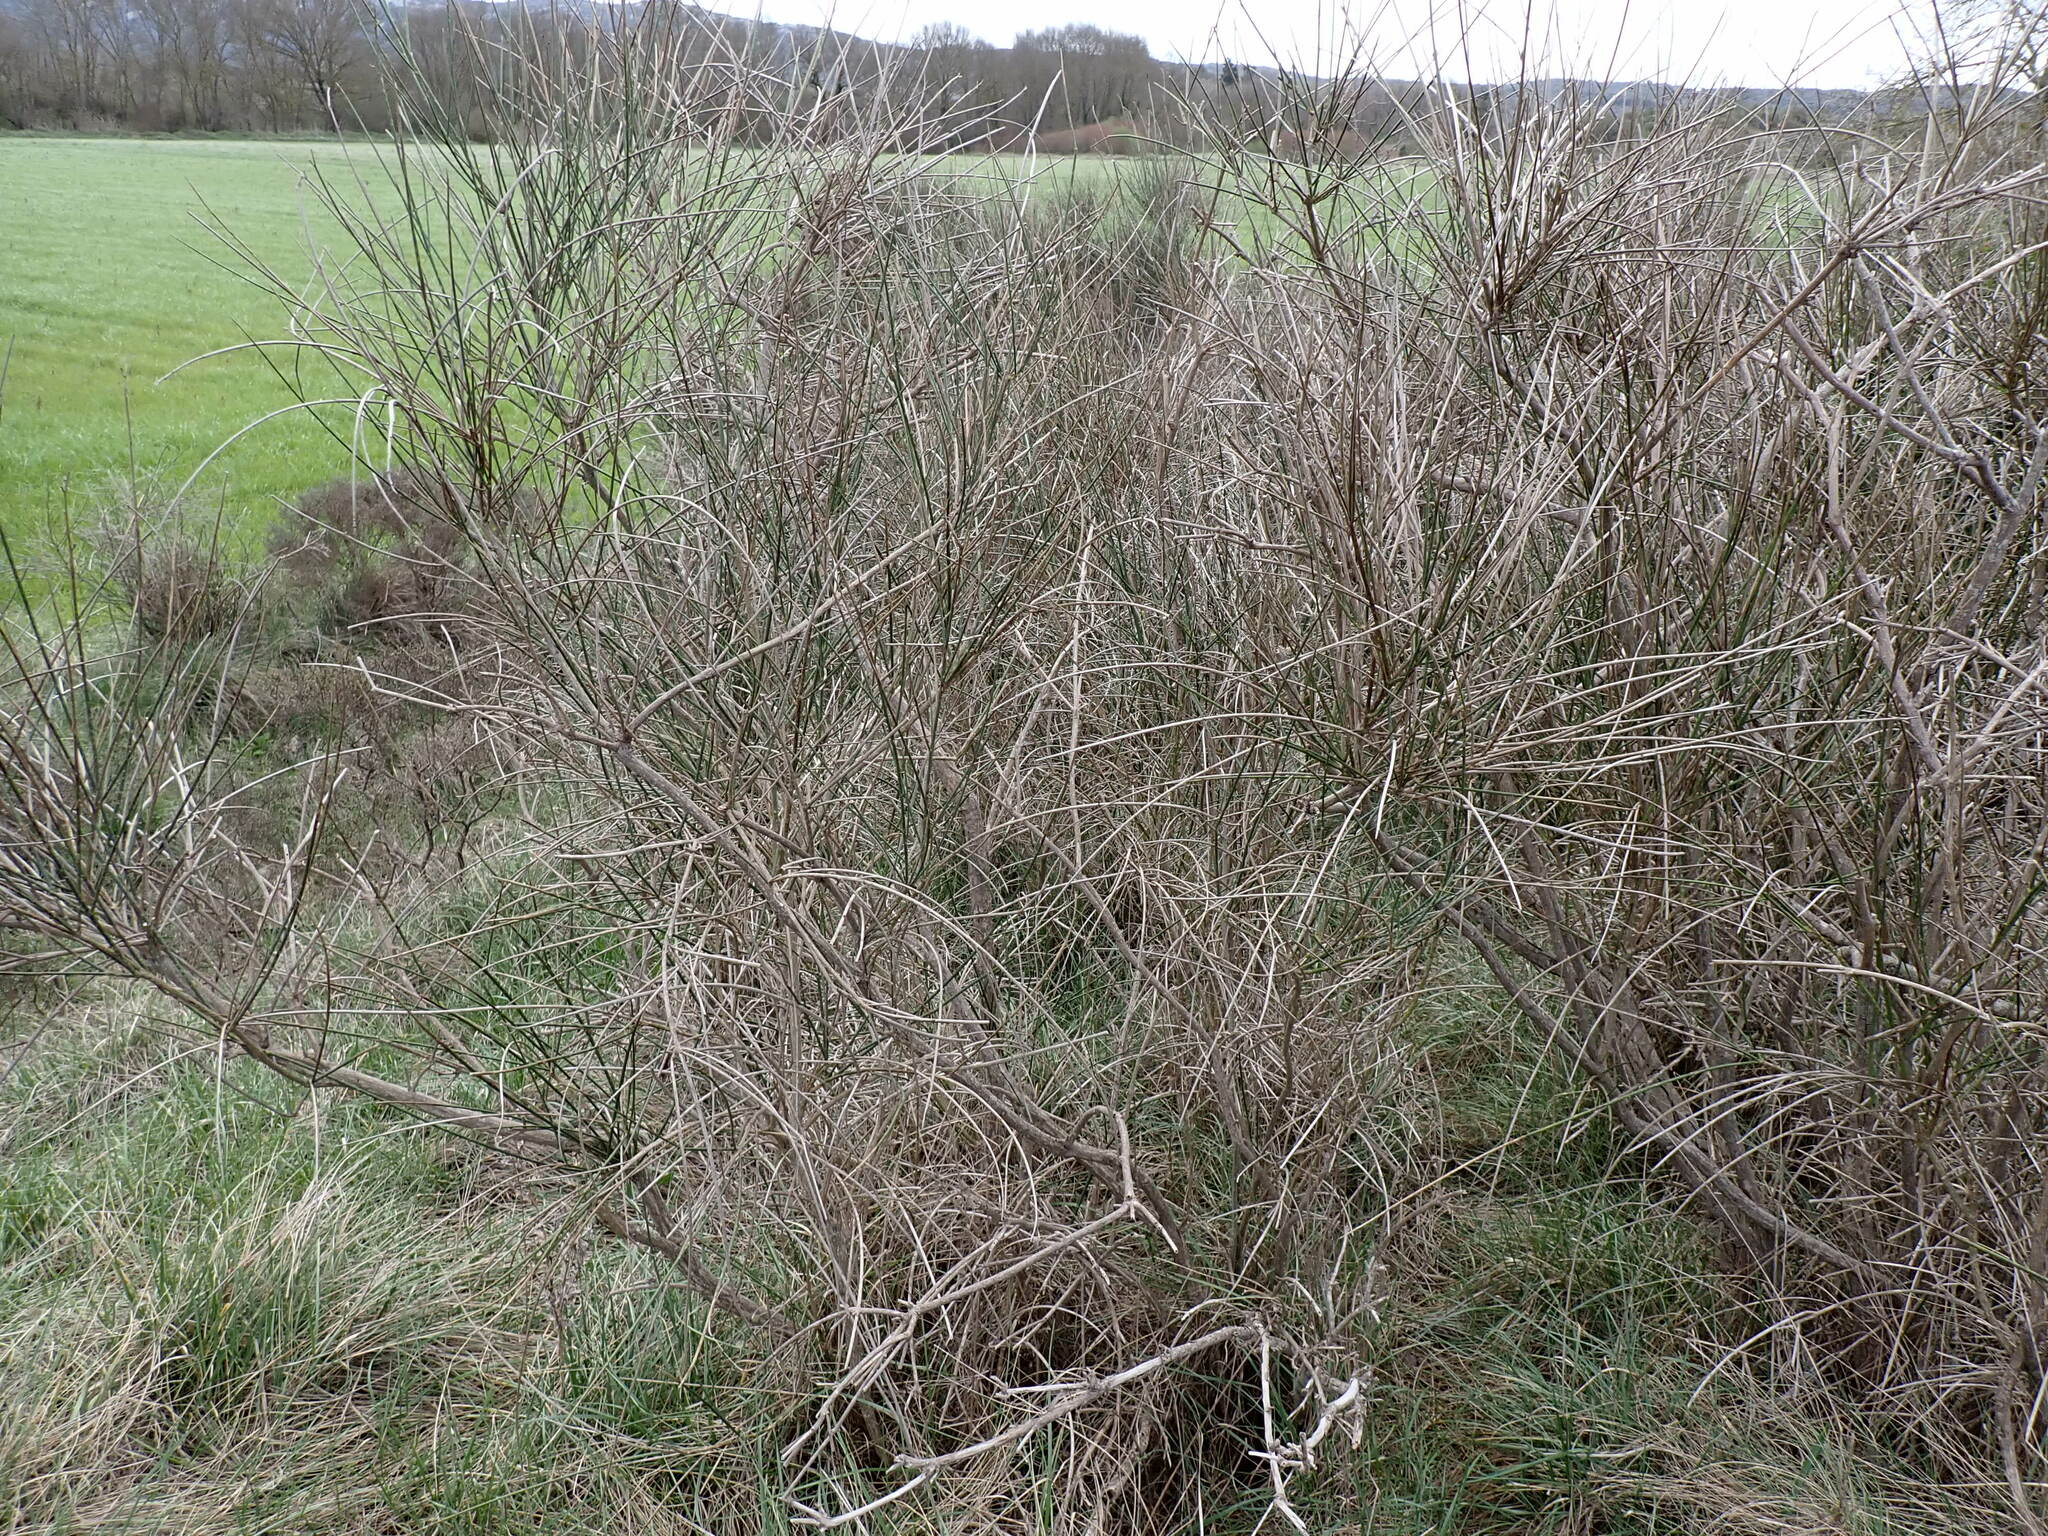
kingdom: Plantae
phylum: Tracheophyta
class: Magnoliopsida
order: Fabales
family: Fabaceae
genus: Spartium
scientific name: Spartium junceum
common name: Spanish broom
